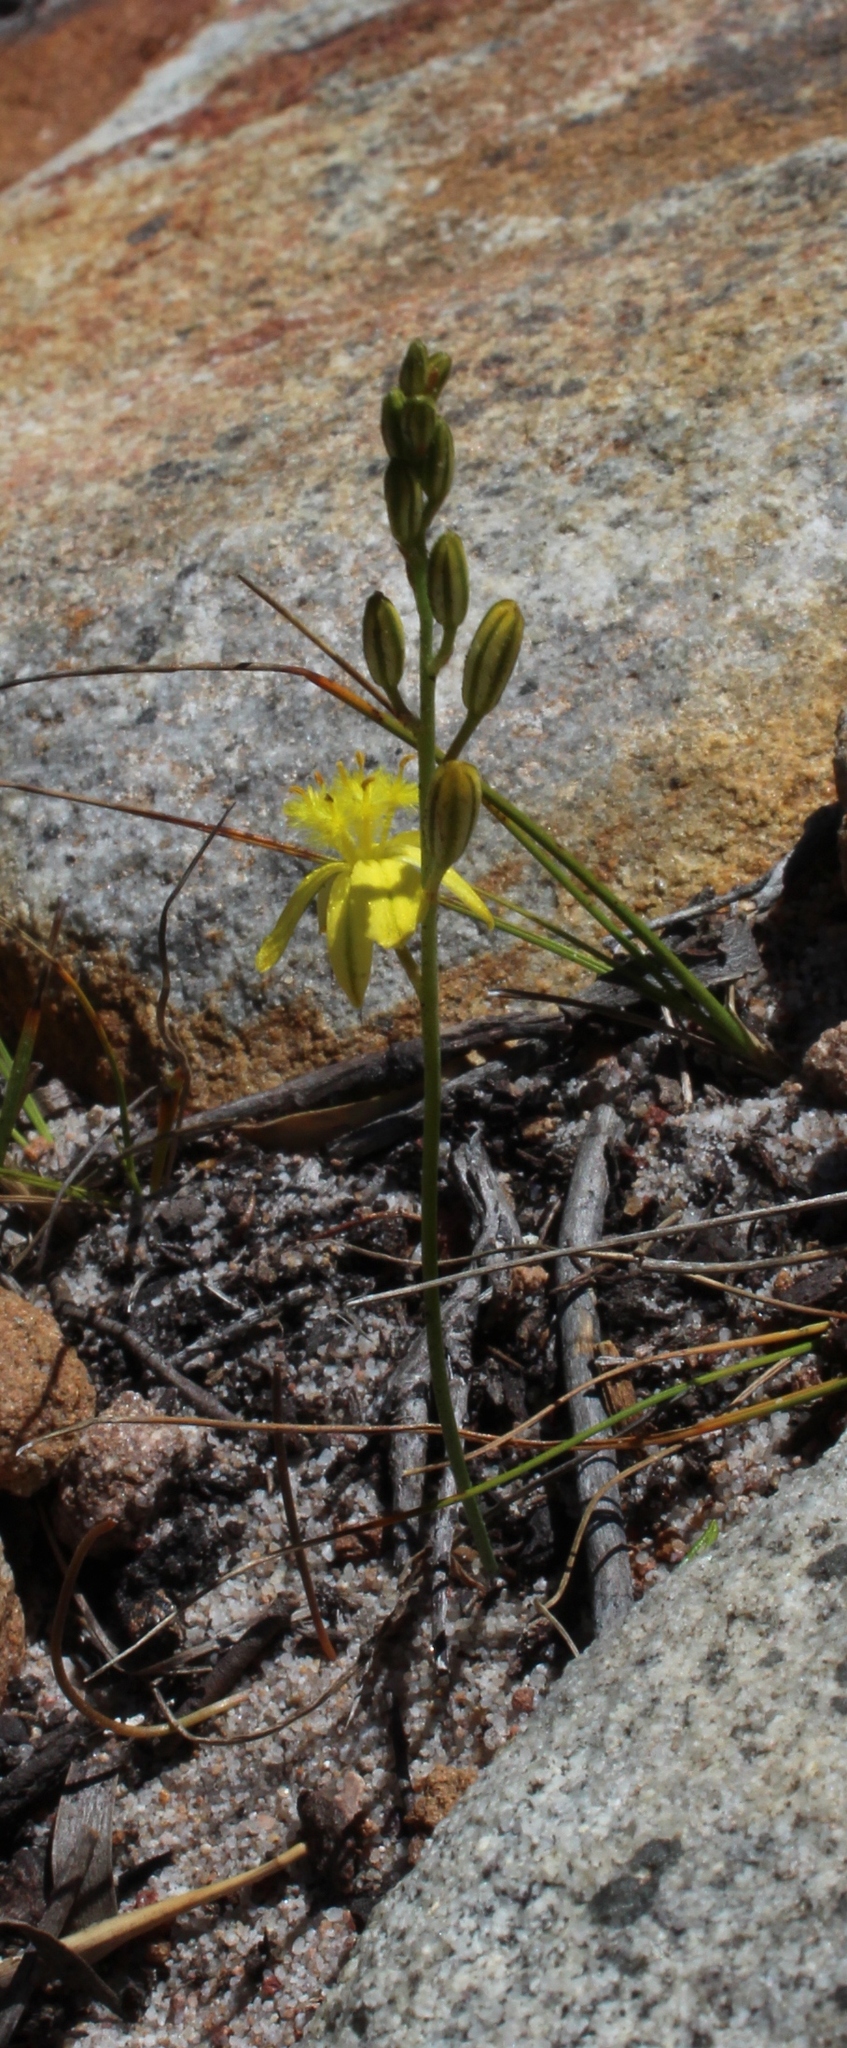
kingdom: Plantae
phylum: Tracheophyta
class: Liliopsida
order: Asparagales
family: Asphodelaceae
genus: Bulbine
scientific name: Bulbine favosa
